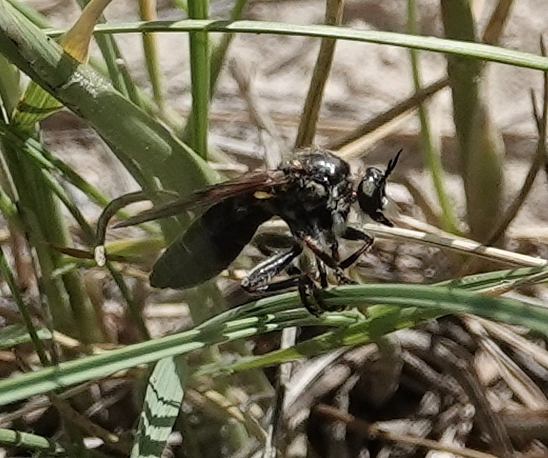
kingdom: Animalia
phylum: Arthropoda
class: Insecta
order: Diptera
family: Asilidae
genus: Echthodopa
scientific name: Echthodopa pubera
